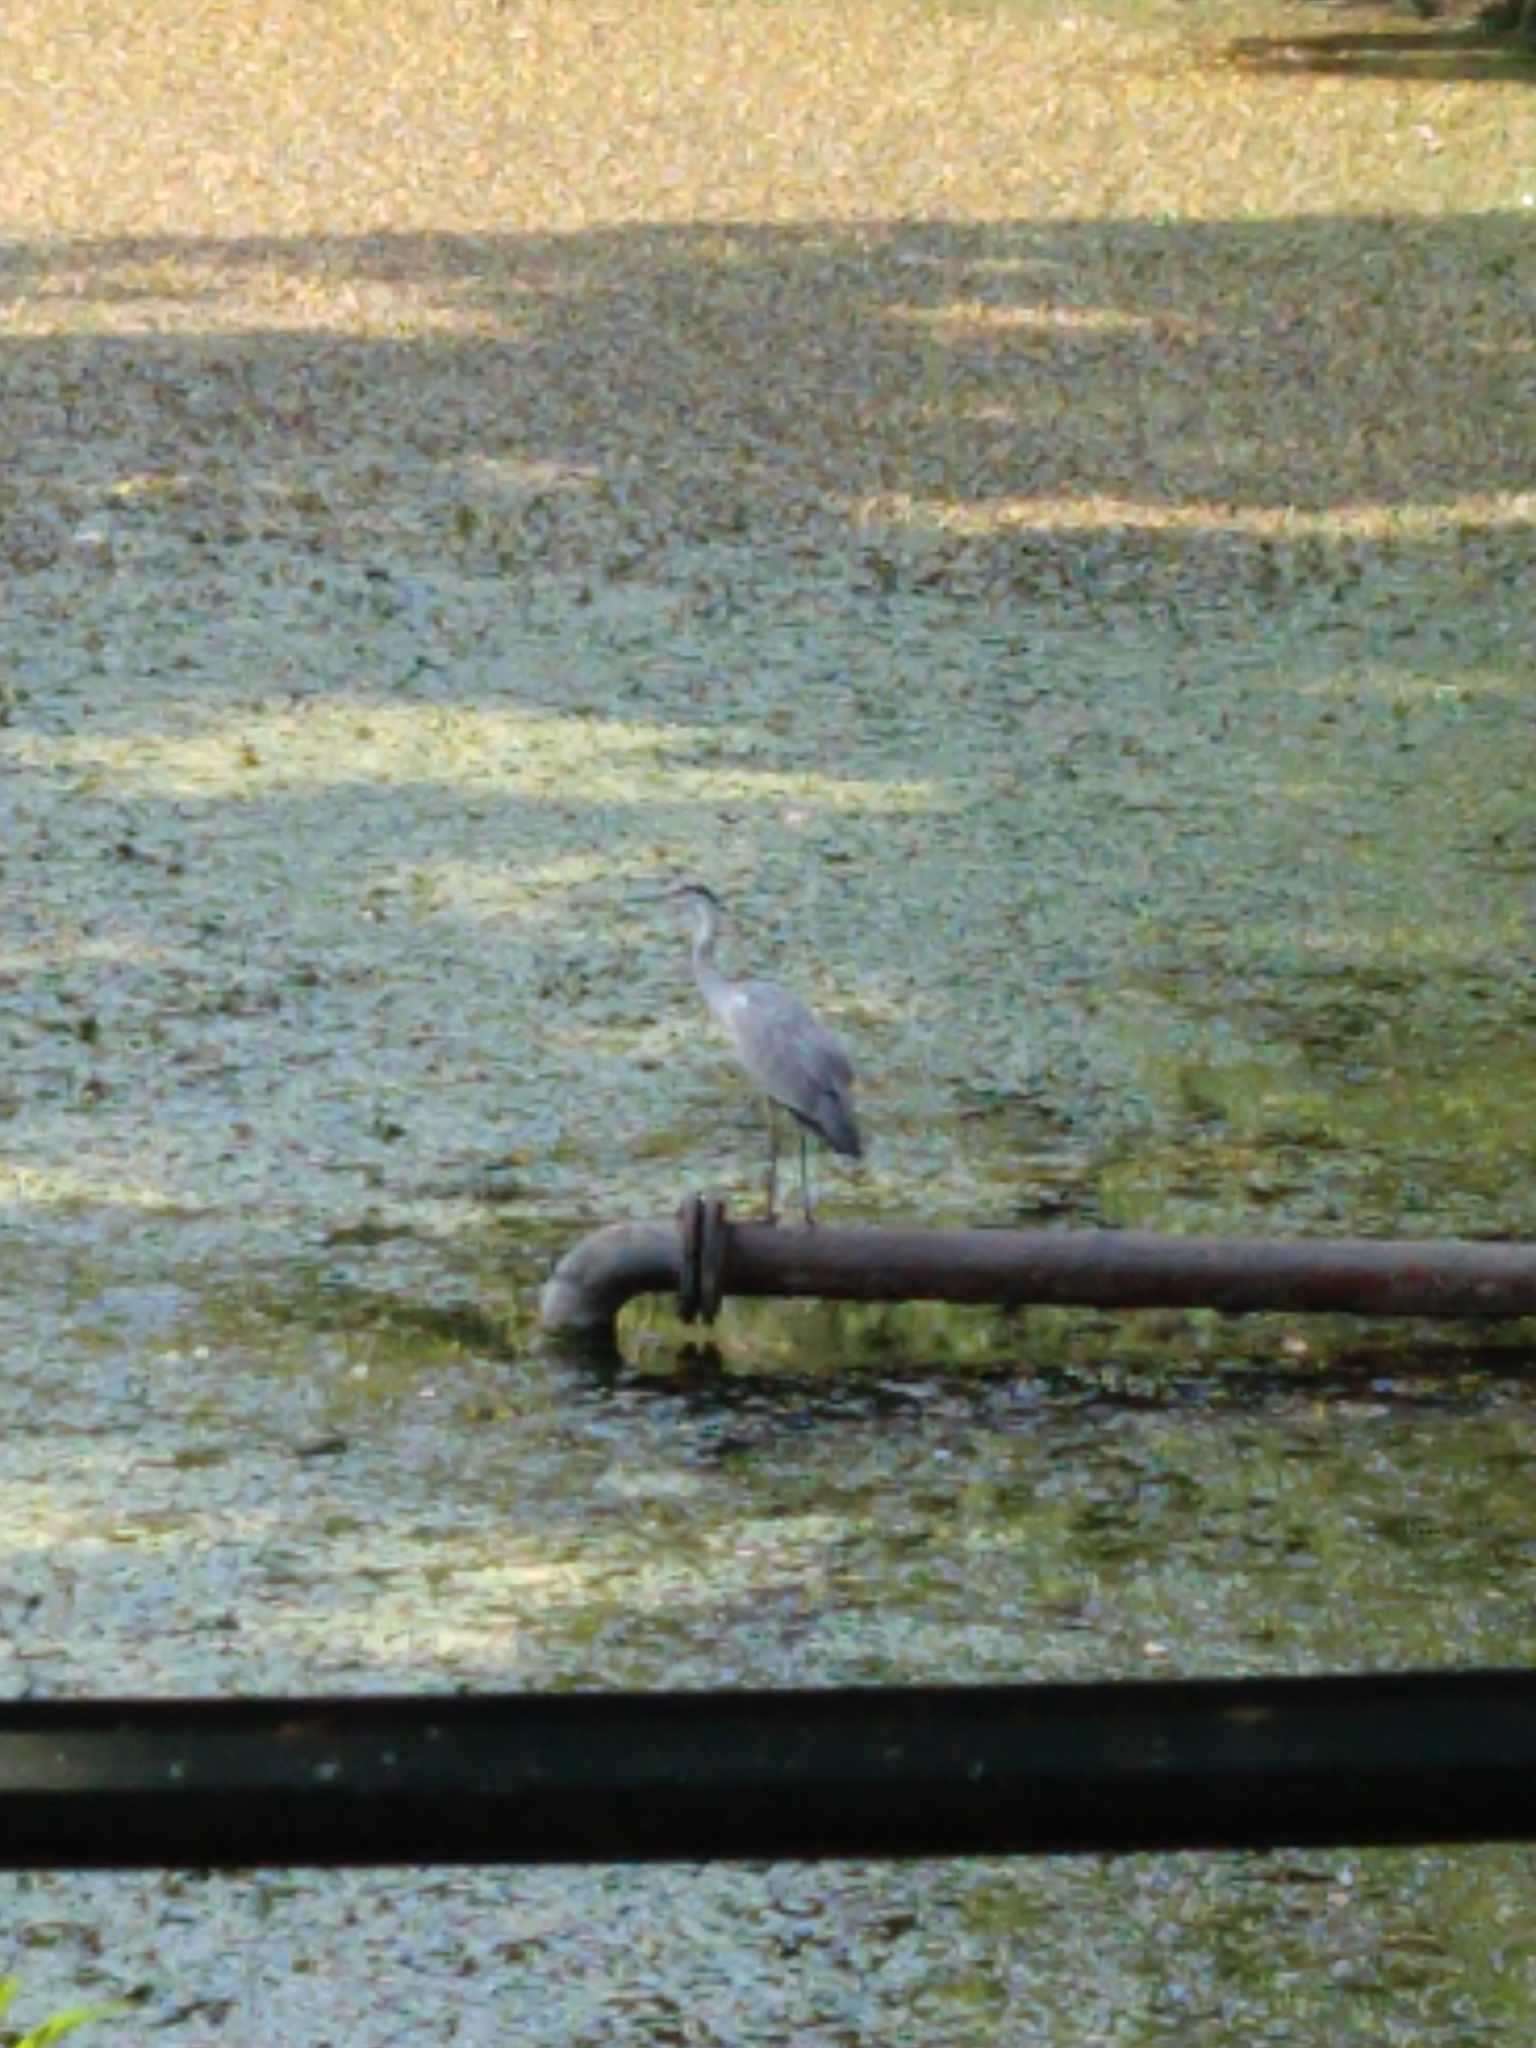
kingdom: Animalia
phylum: Chordata
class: Aves
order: Pelecaniformes
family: Ardeidae
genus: Ardea
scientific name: Ardea cinerea
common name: Grey heron
